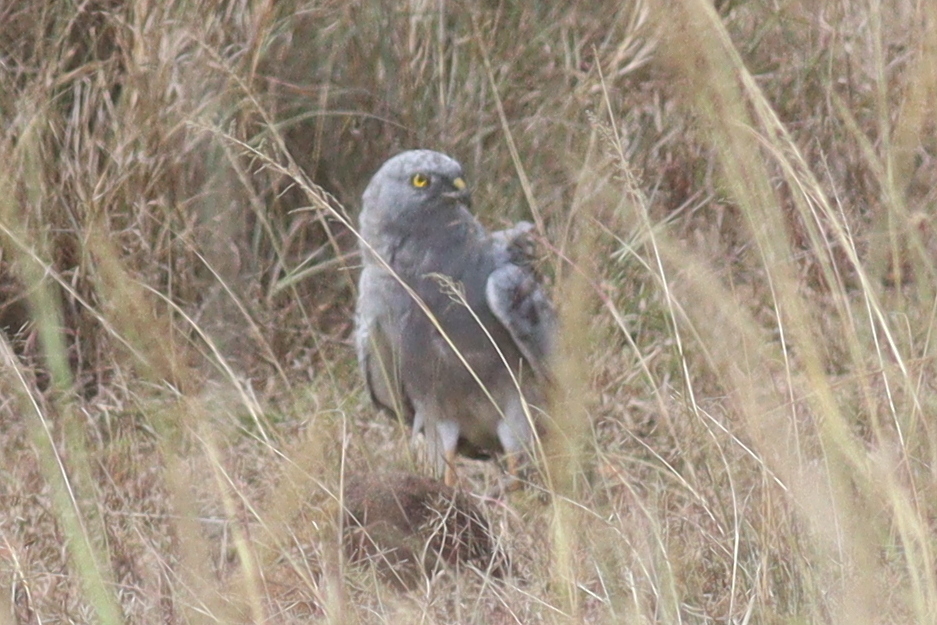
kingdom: Animalia
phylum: Chordata
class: Aves
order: Accipitriformes
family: Accipitridae
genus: Circus
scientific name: Circus pygargus
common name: Montagu's harrier
